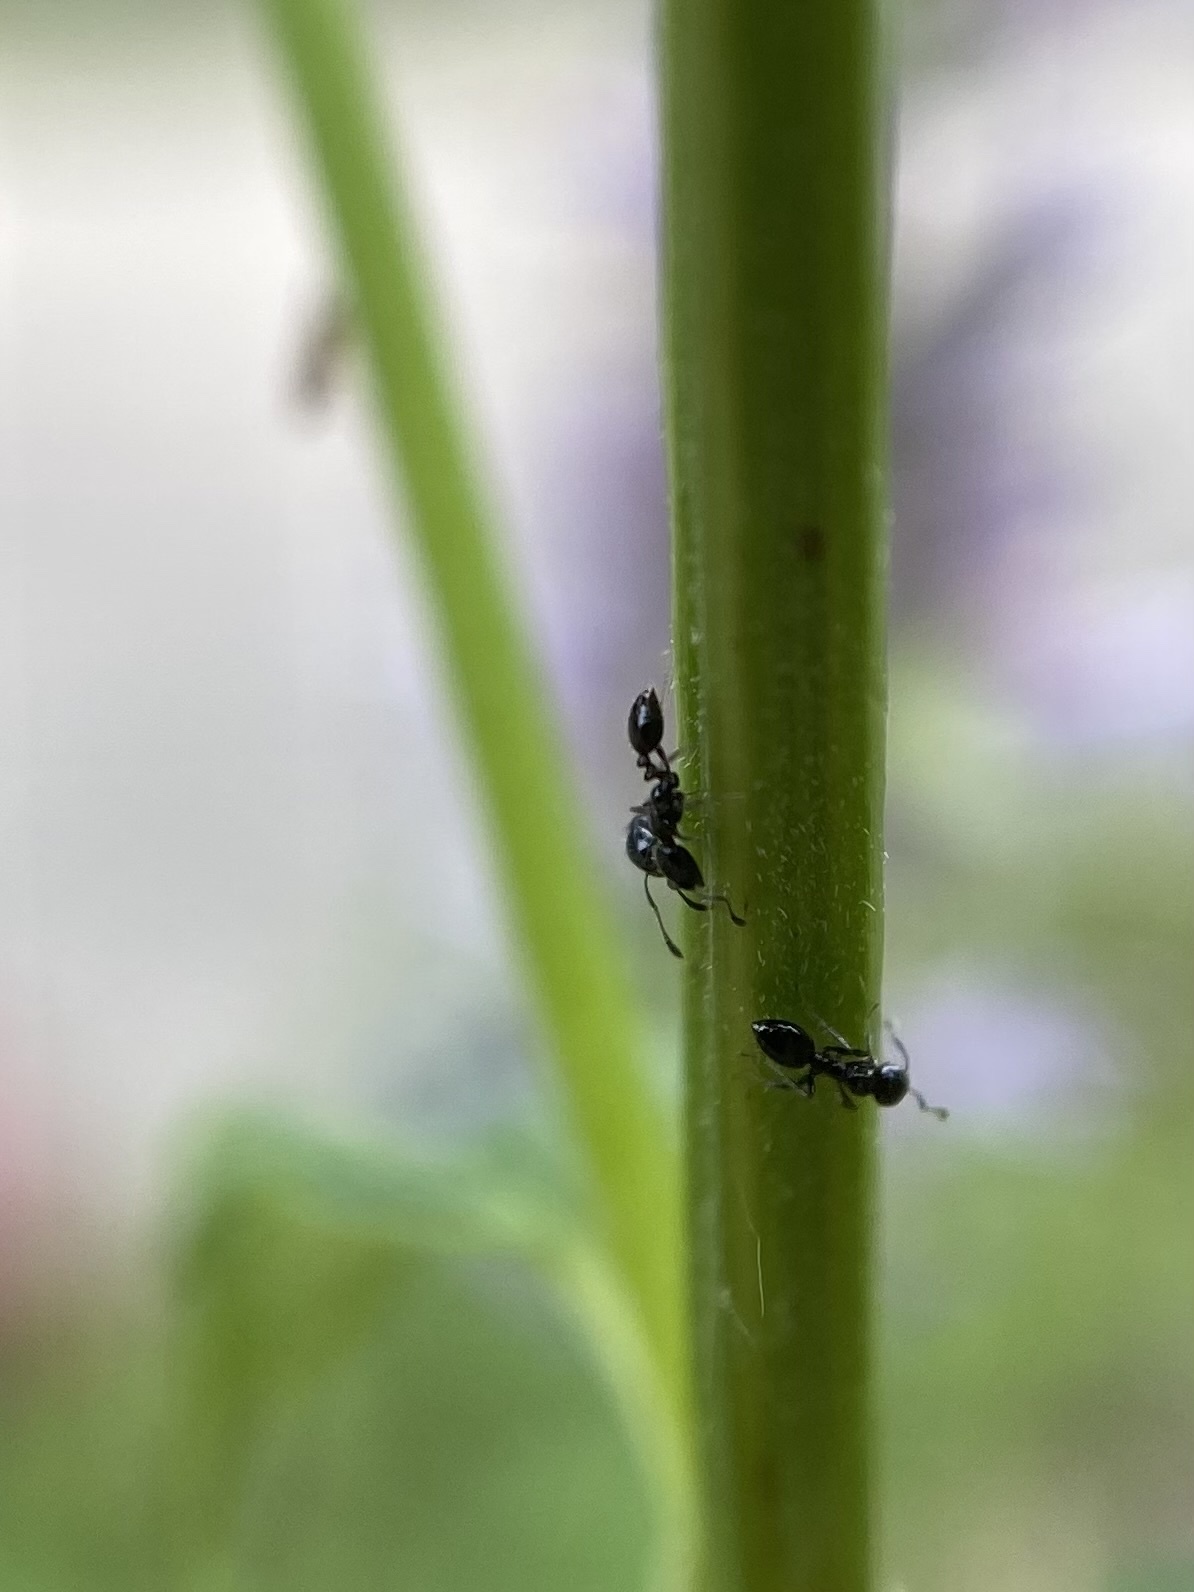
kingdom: Animalia
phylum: Arthropoda
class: Insecta
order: Hymenoptera
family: Formicidae
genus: Monomorium
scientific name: Monomorium minimum
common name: Little black ant
